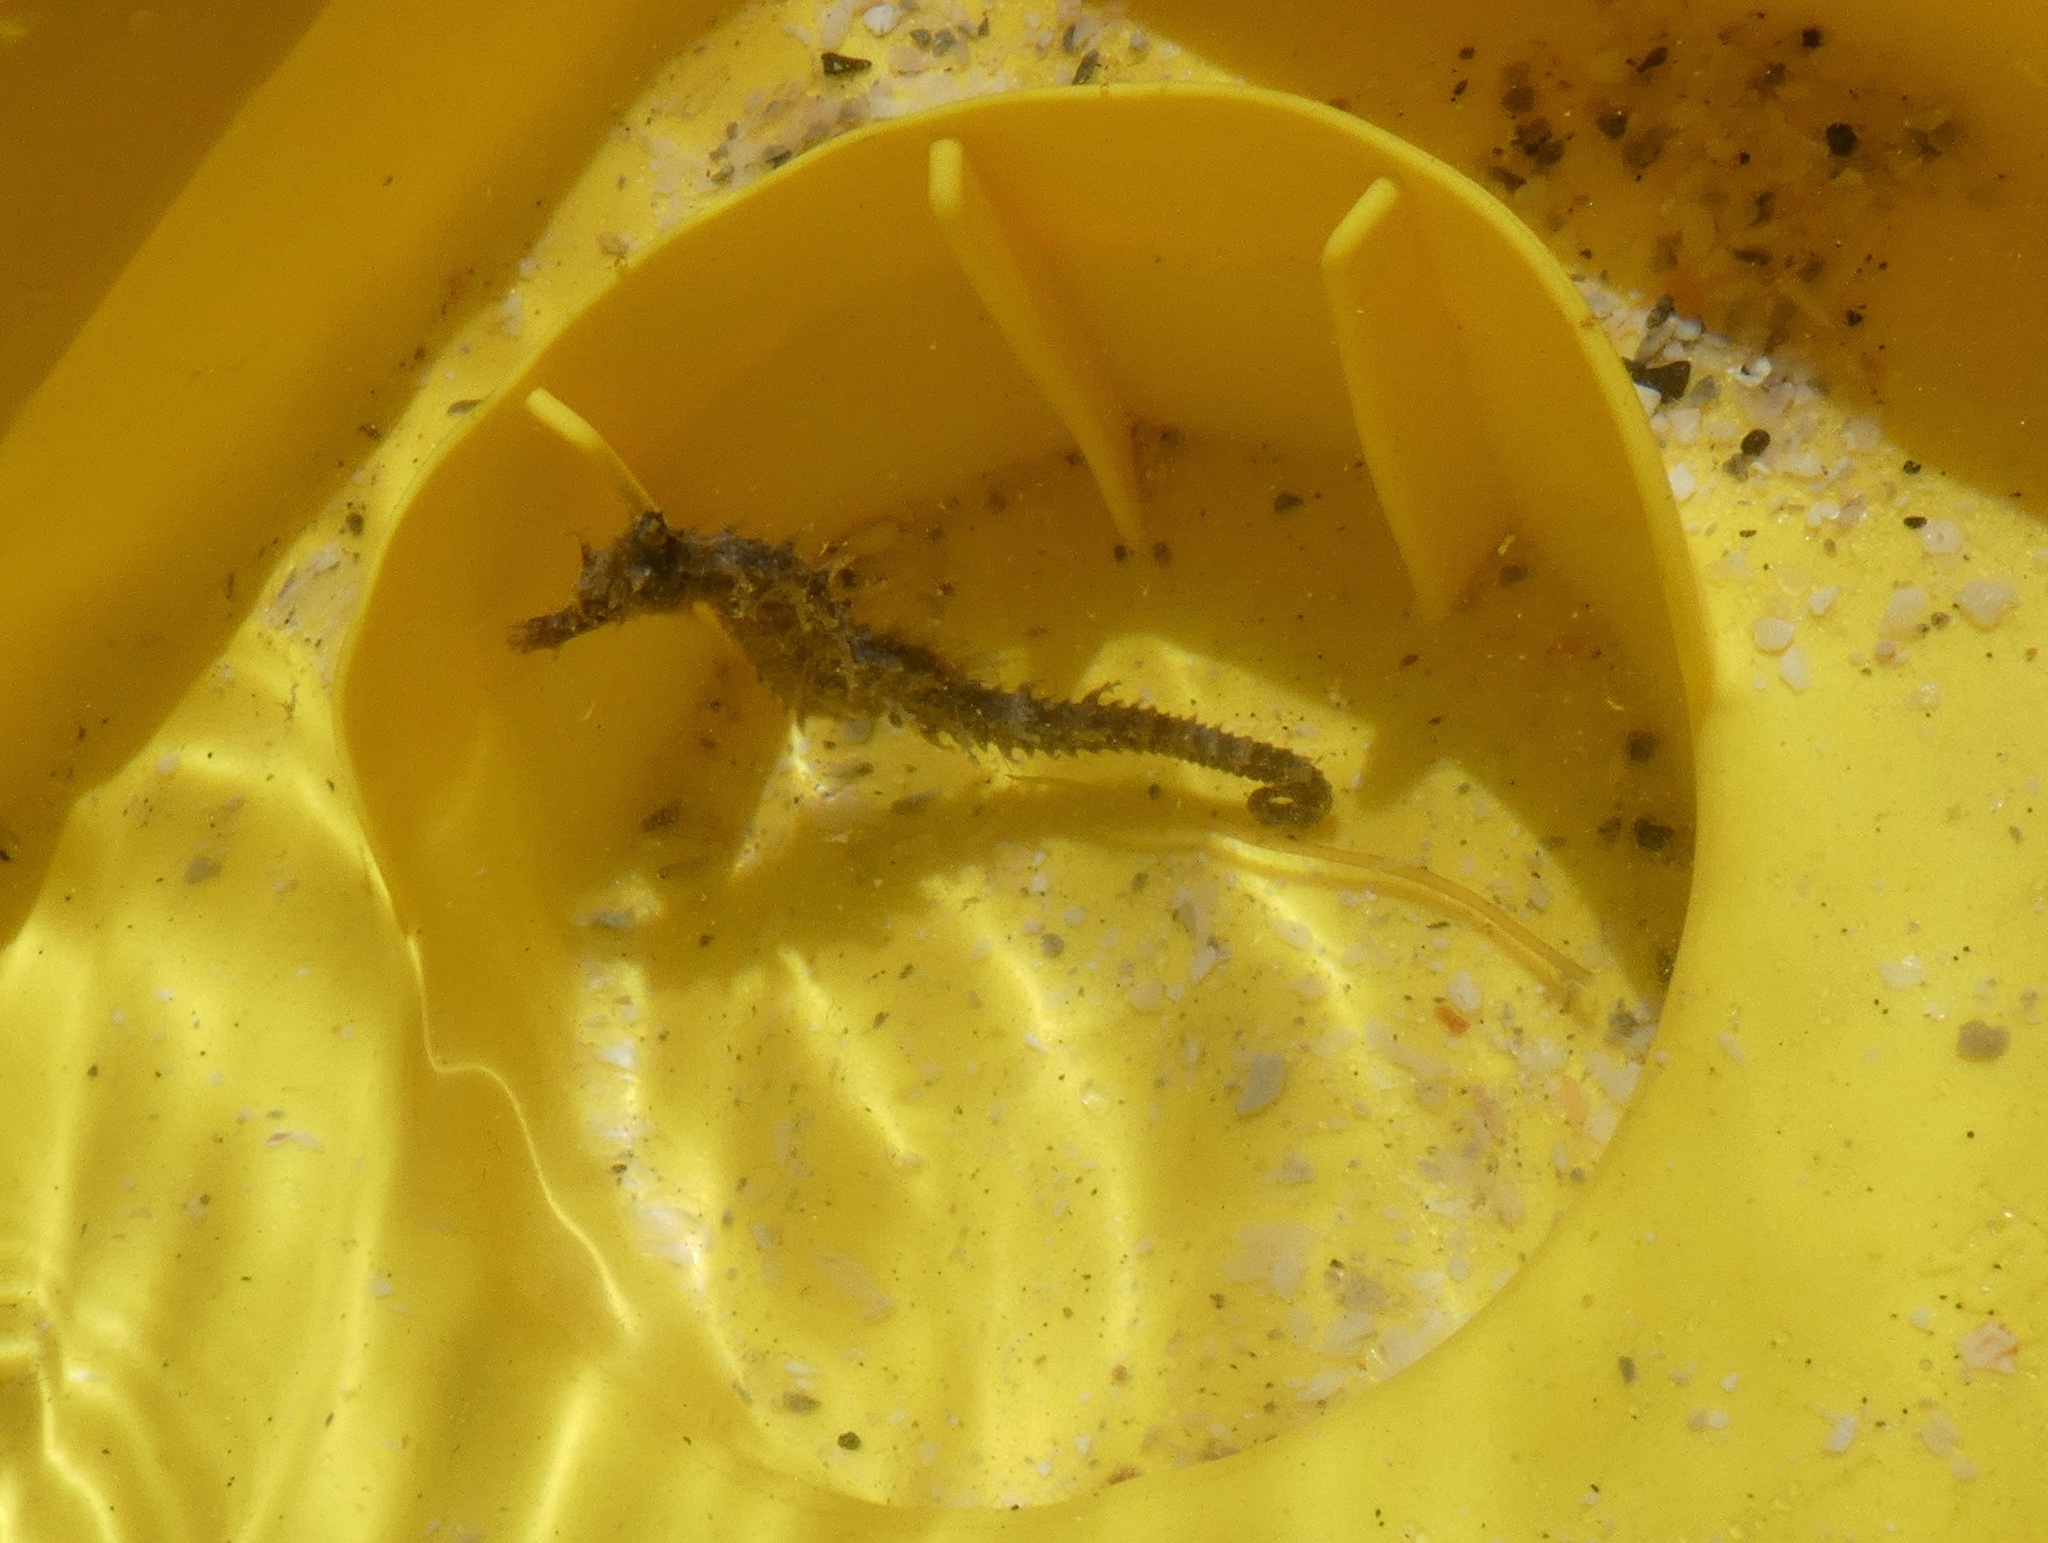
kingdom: Animalia
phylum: Chordata
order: Syngnathiformes
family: Syngnathidae
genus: Hippocampus
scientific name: Hippocampus erectus
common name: Lined seahorse
